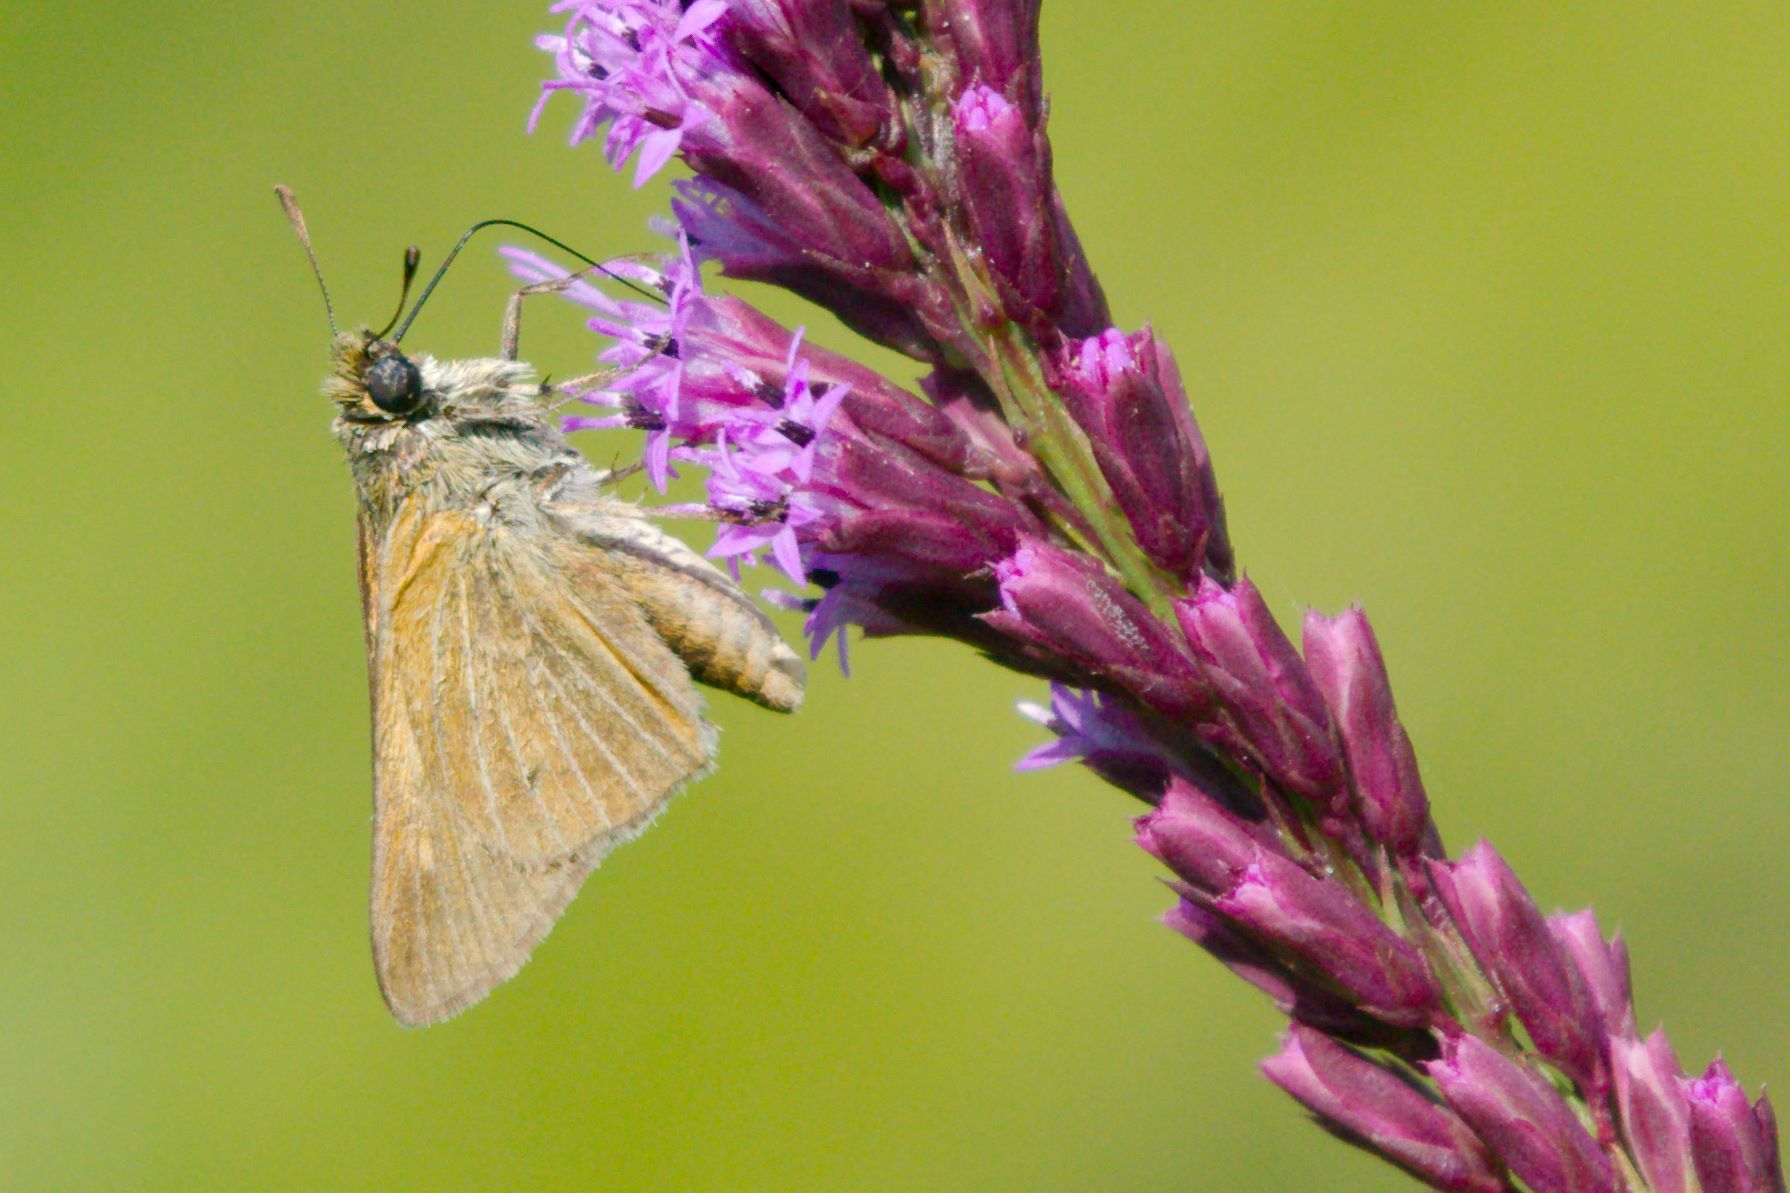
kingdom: Animalia
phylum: Arthropoda
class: Insecta
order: Lepidoptera
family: Hesperiidae
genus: Euphyes
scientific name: Euphyes berryi
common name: Berry's skipper
